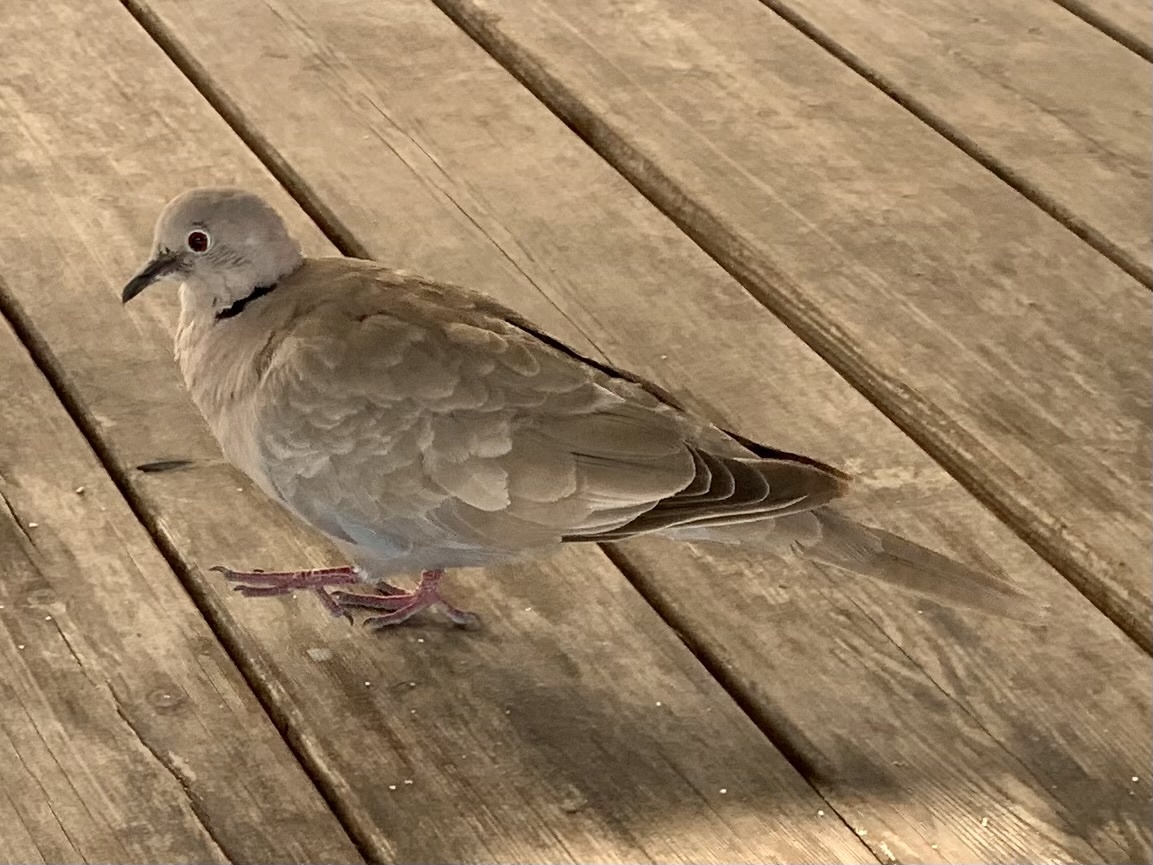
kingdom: Animalia
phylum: Chordata
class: Aves
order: Columbiformes
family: Columbidae
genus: Streptopelia
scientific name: Streptopelia decaocto
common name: Eurasian collared dove
